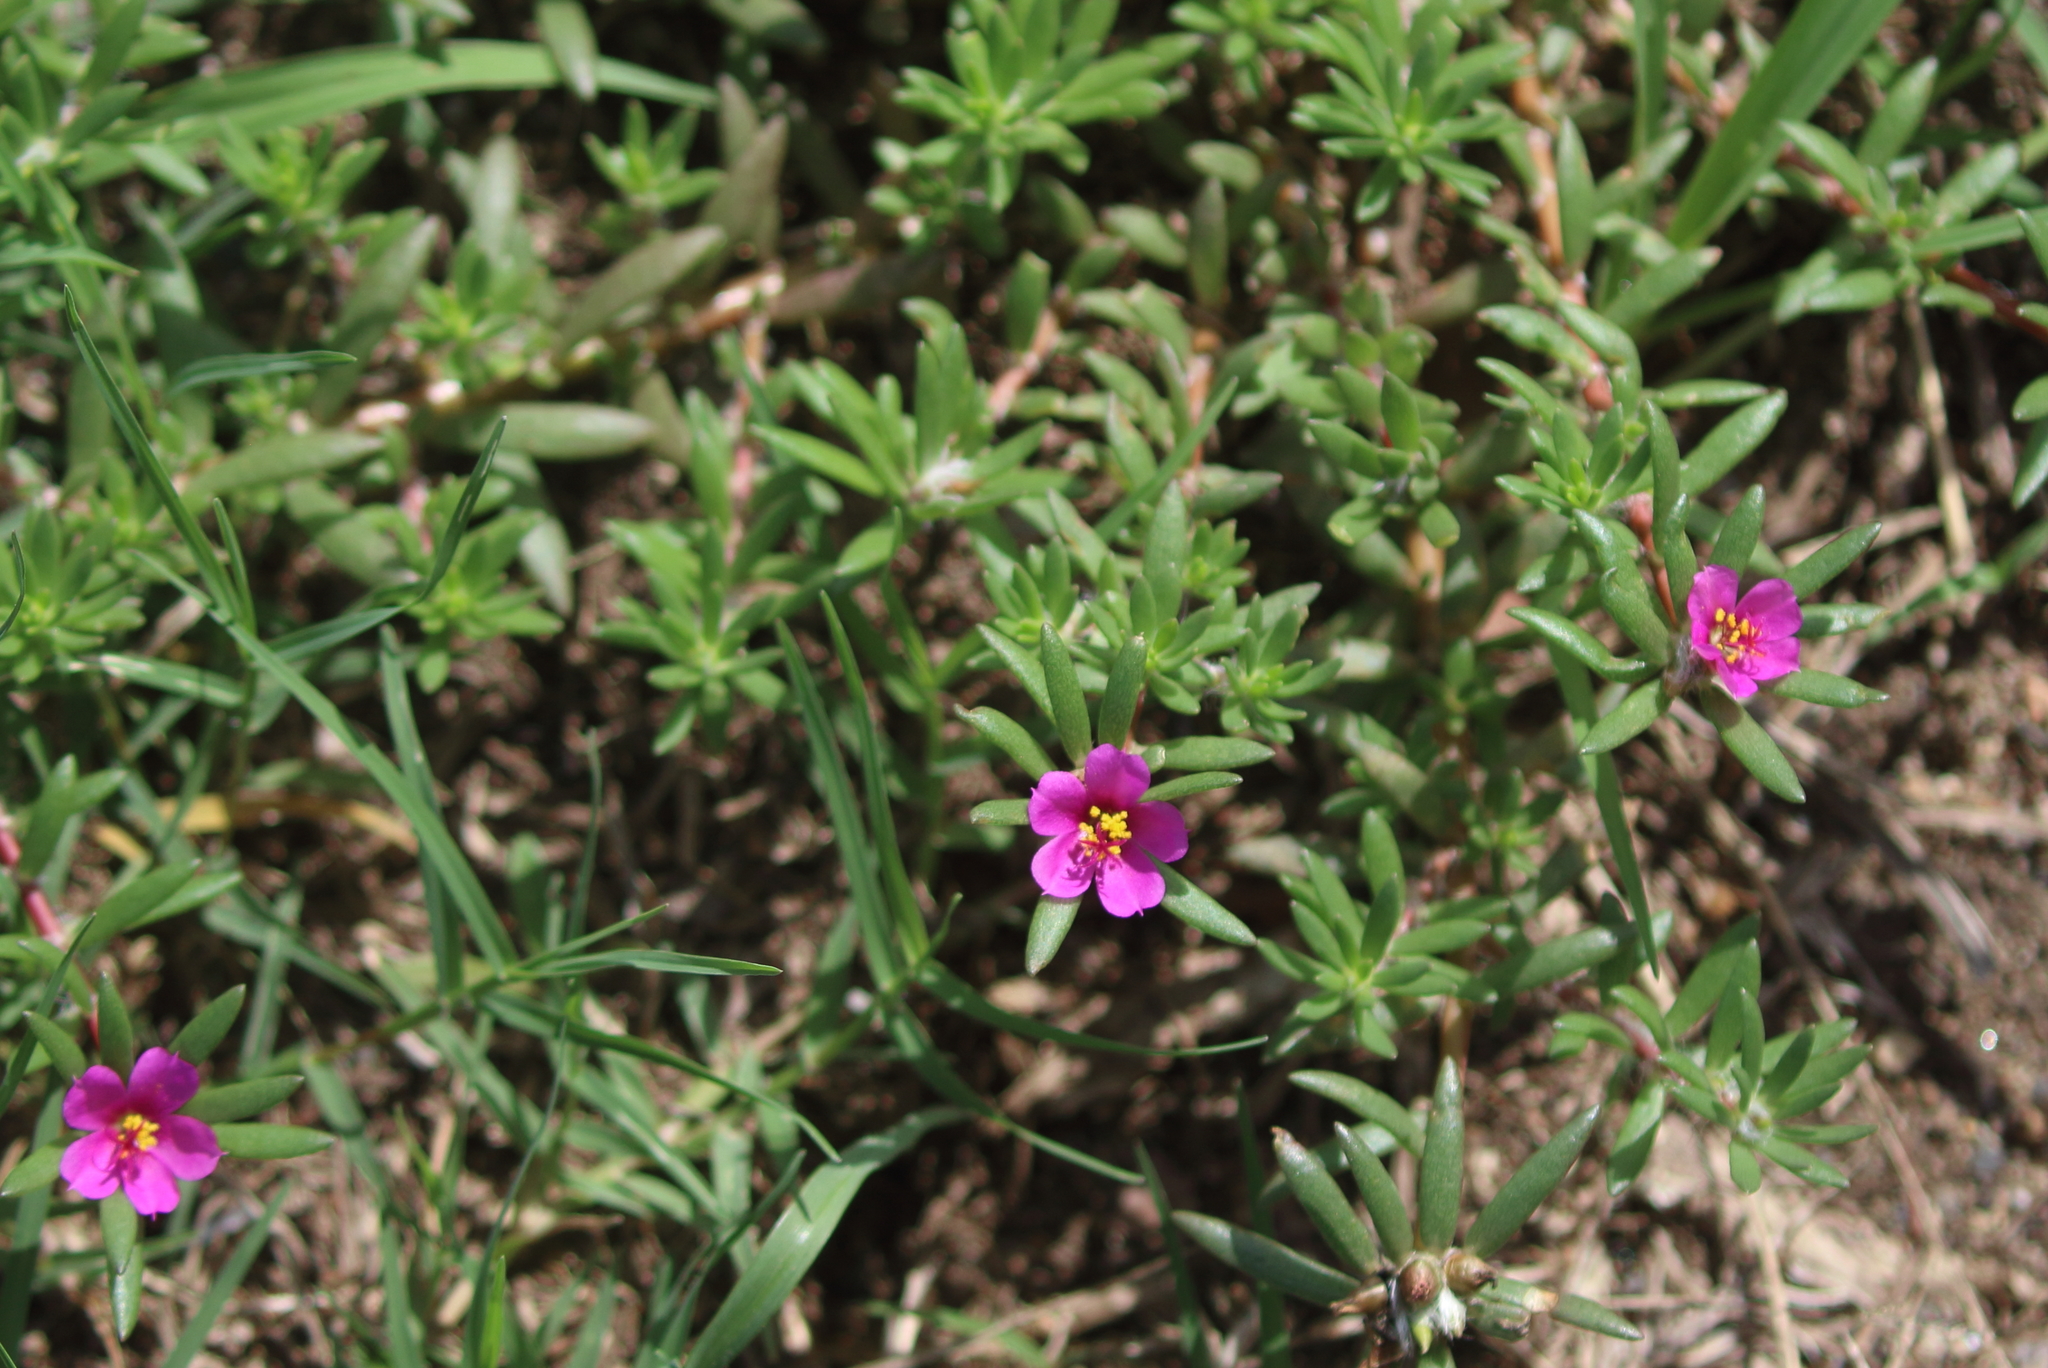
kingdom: Plantae
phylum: Tracheophyta
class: Magnoliopsida
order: Caryophyllales
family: Portulacaceae
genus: Portulaca
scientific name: Portulaca pilosa
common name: Kiss me quick
